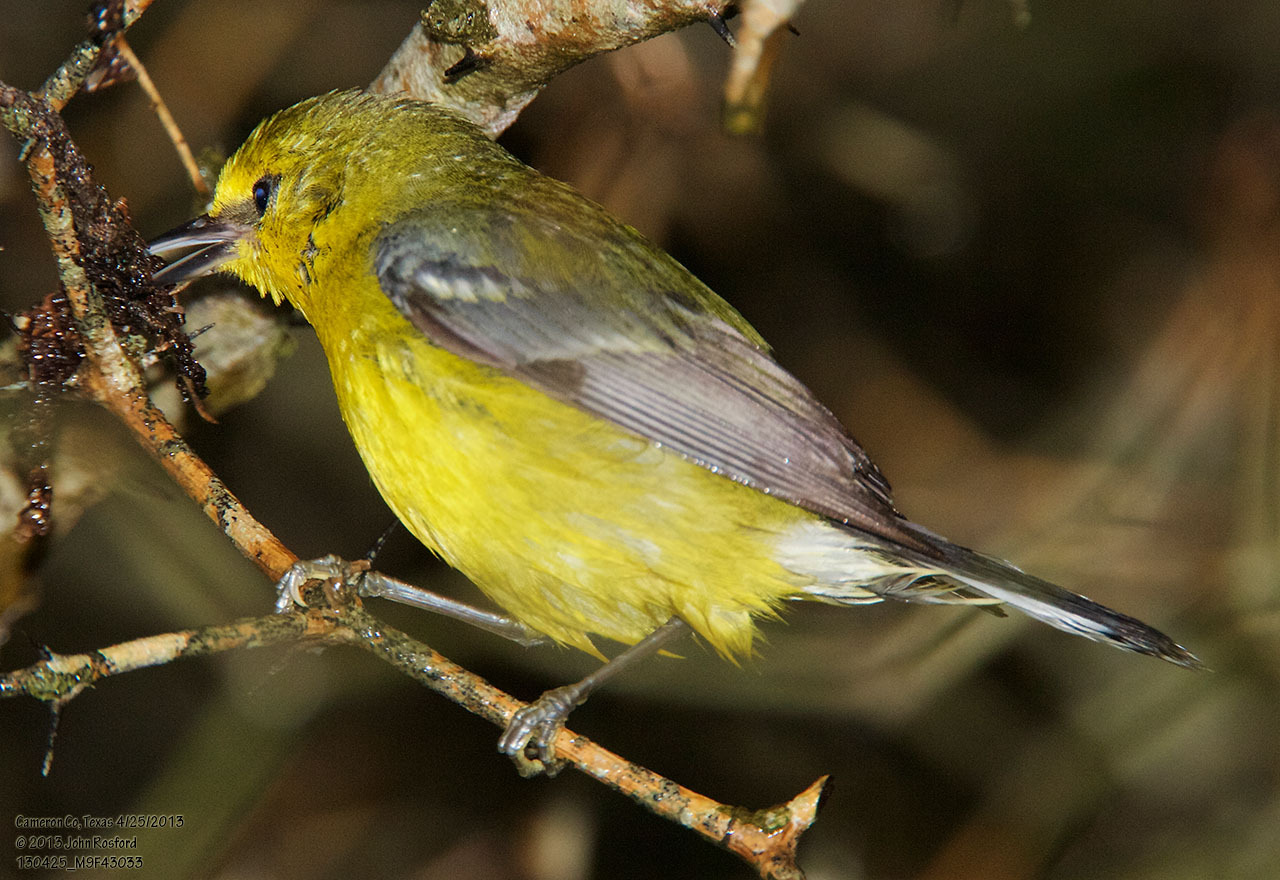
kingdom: Animalia
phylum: Chordata
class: Aves
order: Passeriformes
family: Parulidae
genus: Vermivora
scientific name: Vermivora cyanoptera
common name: Blue-winged warbler
